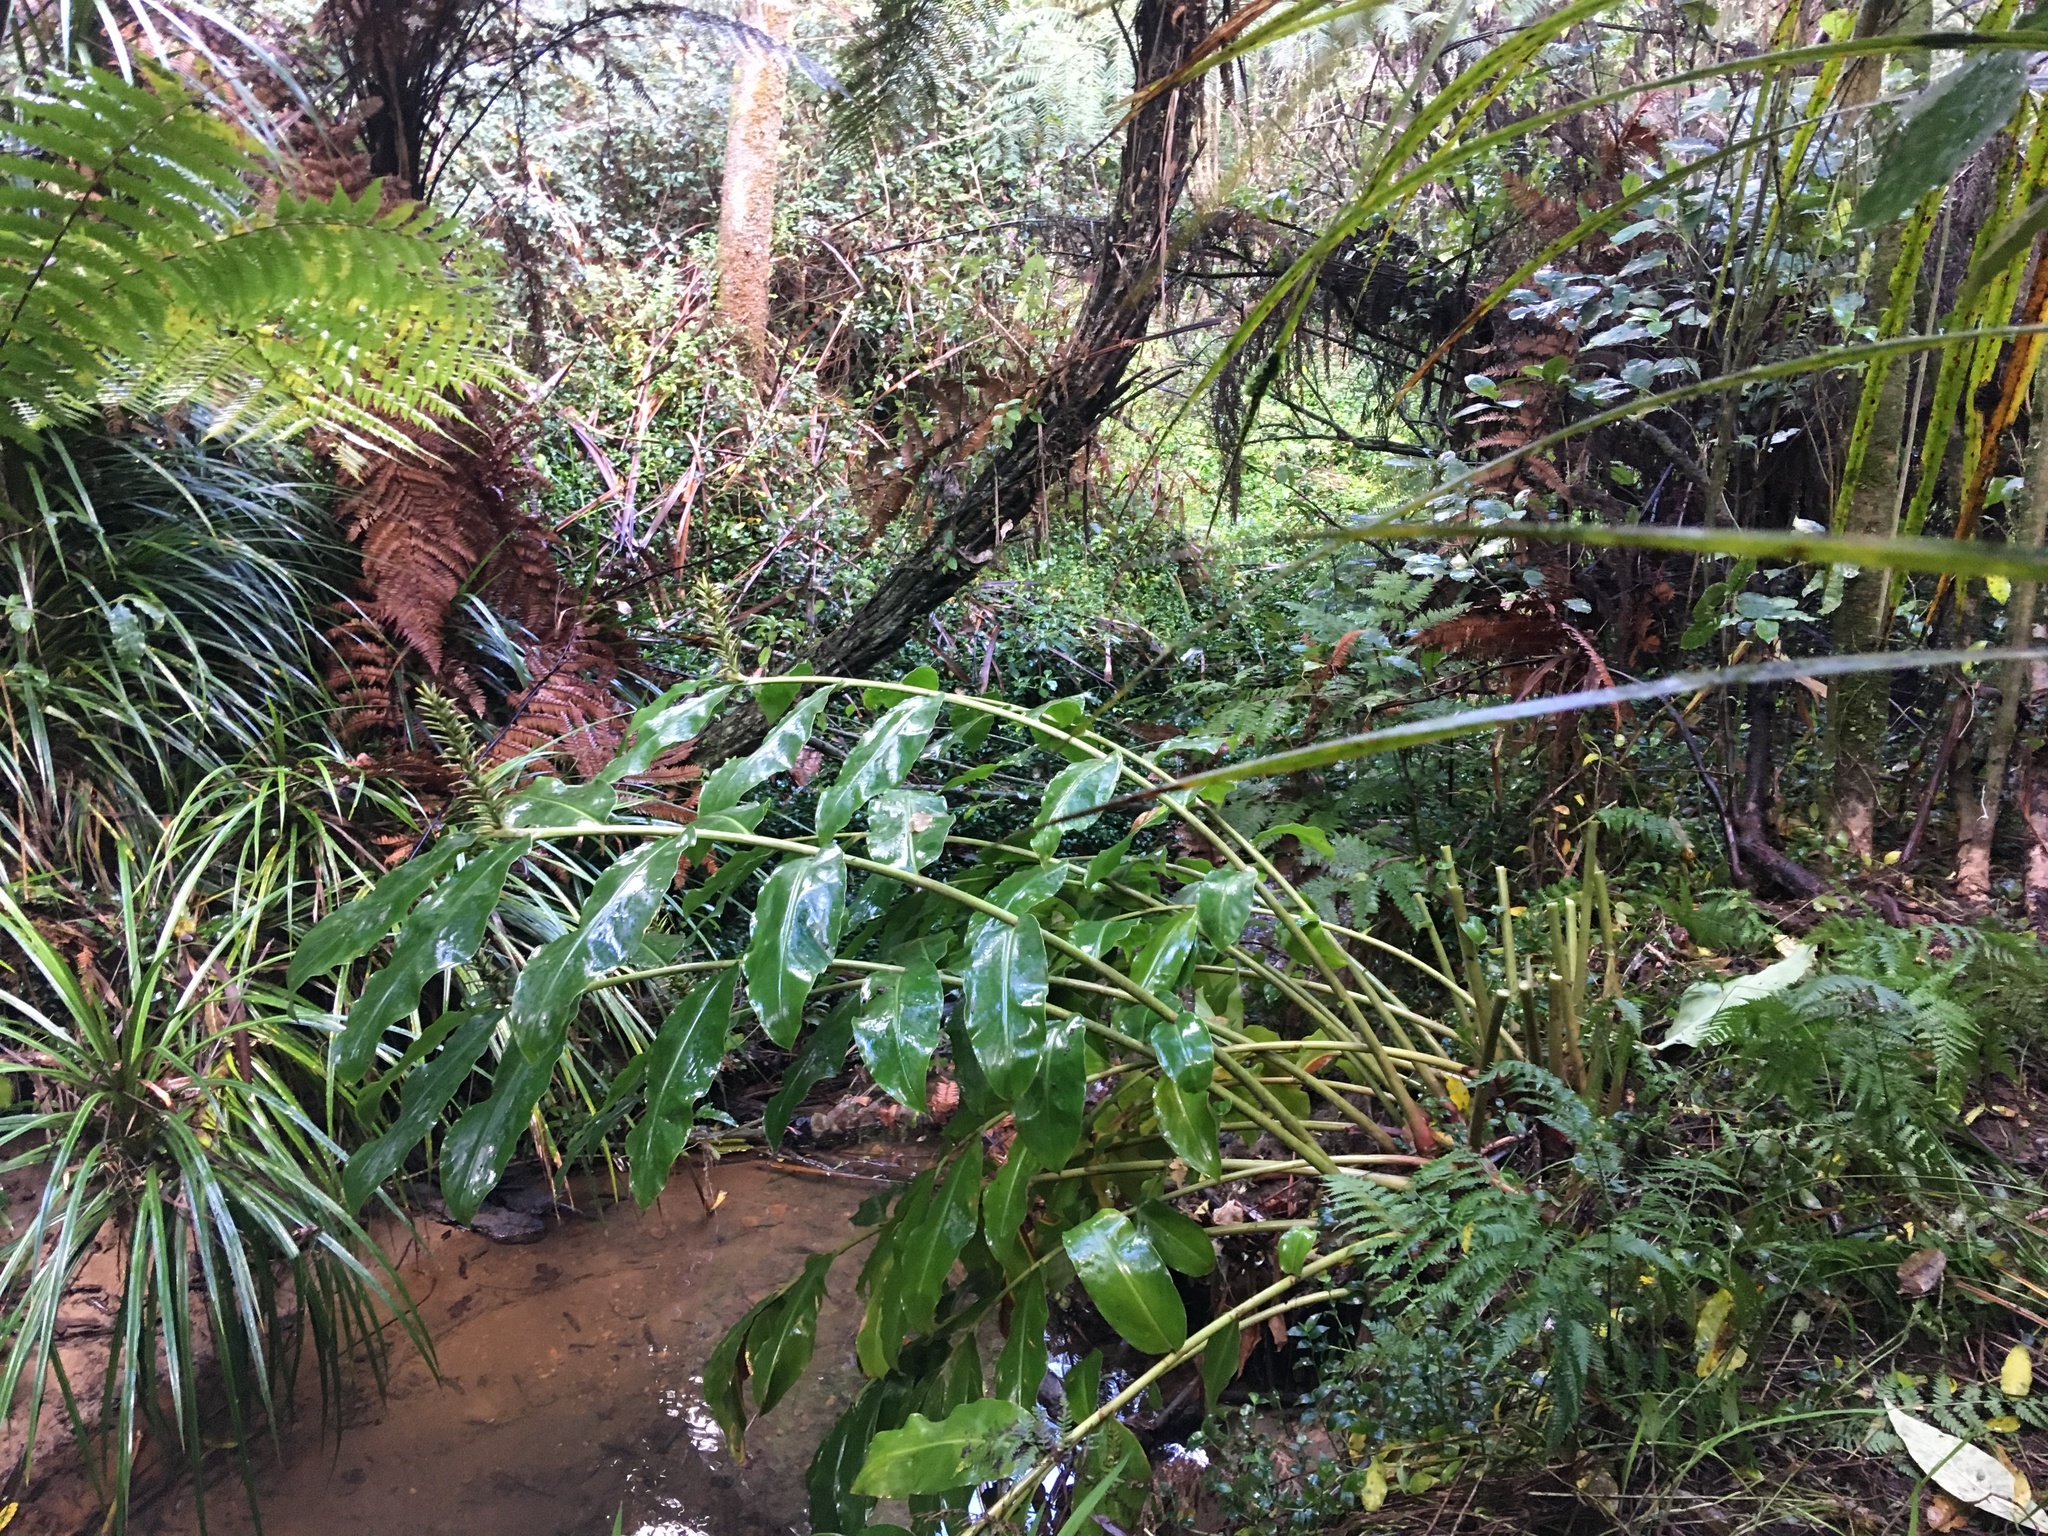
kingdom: Plantae
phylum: Tracheophyta
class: Liliopsida
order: Zingiberales
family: Zingiberaceae
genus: Hedychium
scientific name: Hedychium gardnerianum
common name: Himalayan ginger
